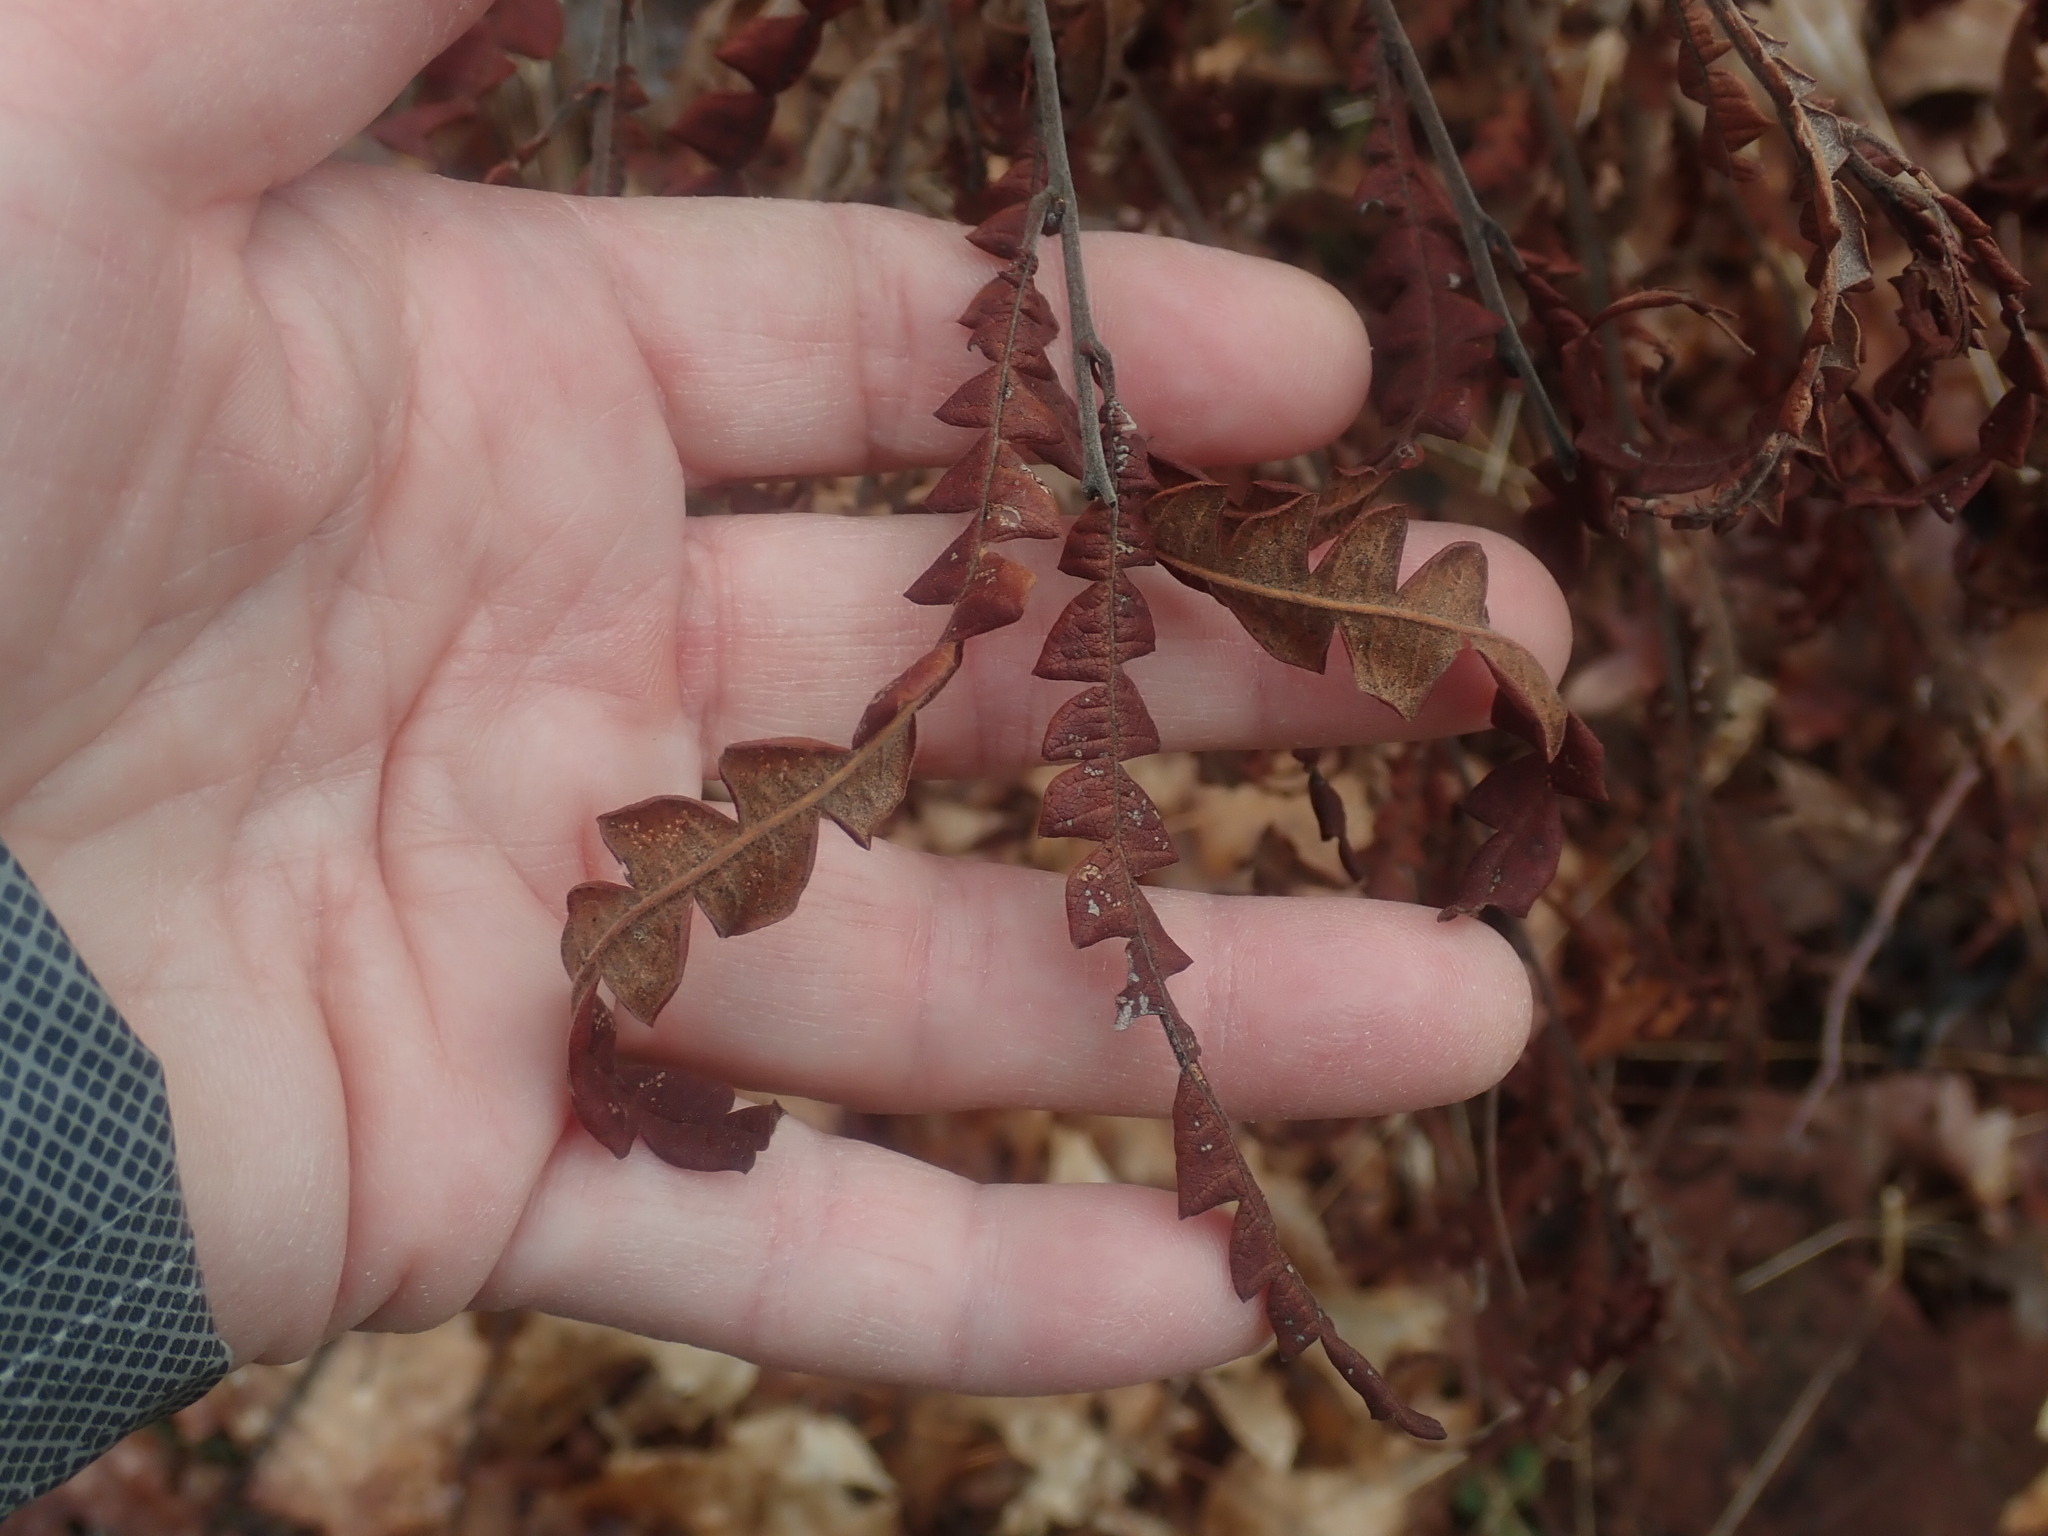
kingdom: Plantae
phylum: Tracheophyta
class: Magnoliopsida
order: Fagales
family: Myricaceae
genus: Comptonia
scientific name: Comptonia peregrina
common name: Sweet-fern
